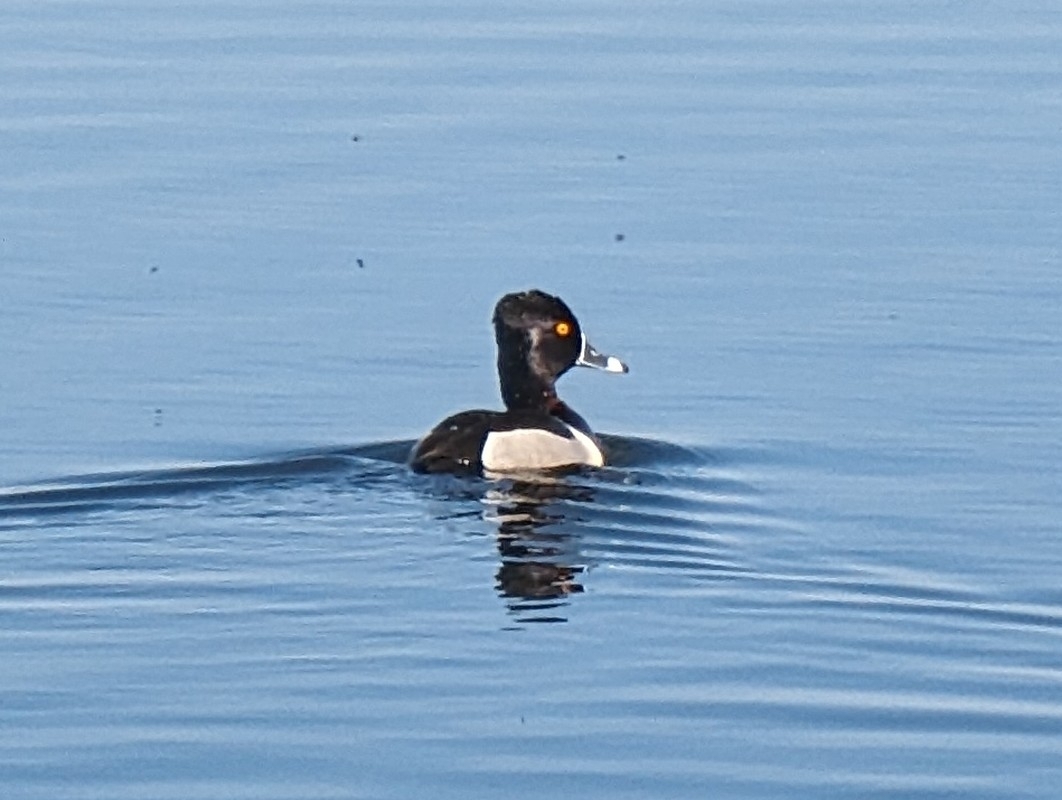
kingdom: Animalia
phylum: Chordata
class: Aves
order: Anseriformes
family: Anatidae
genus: Aythya
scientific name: Aythya collaris
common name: Ring-necked duck
